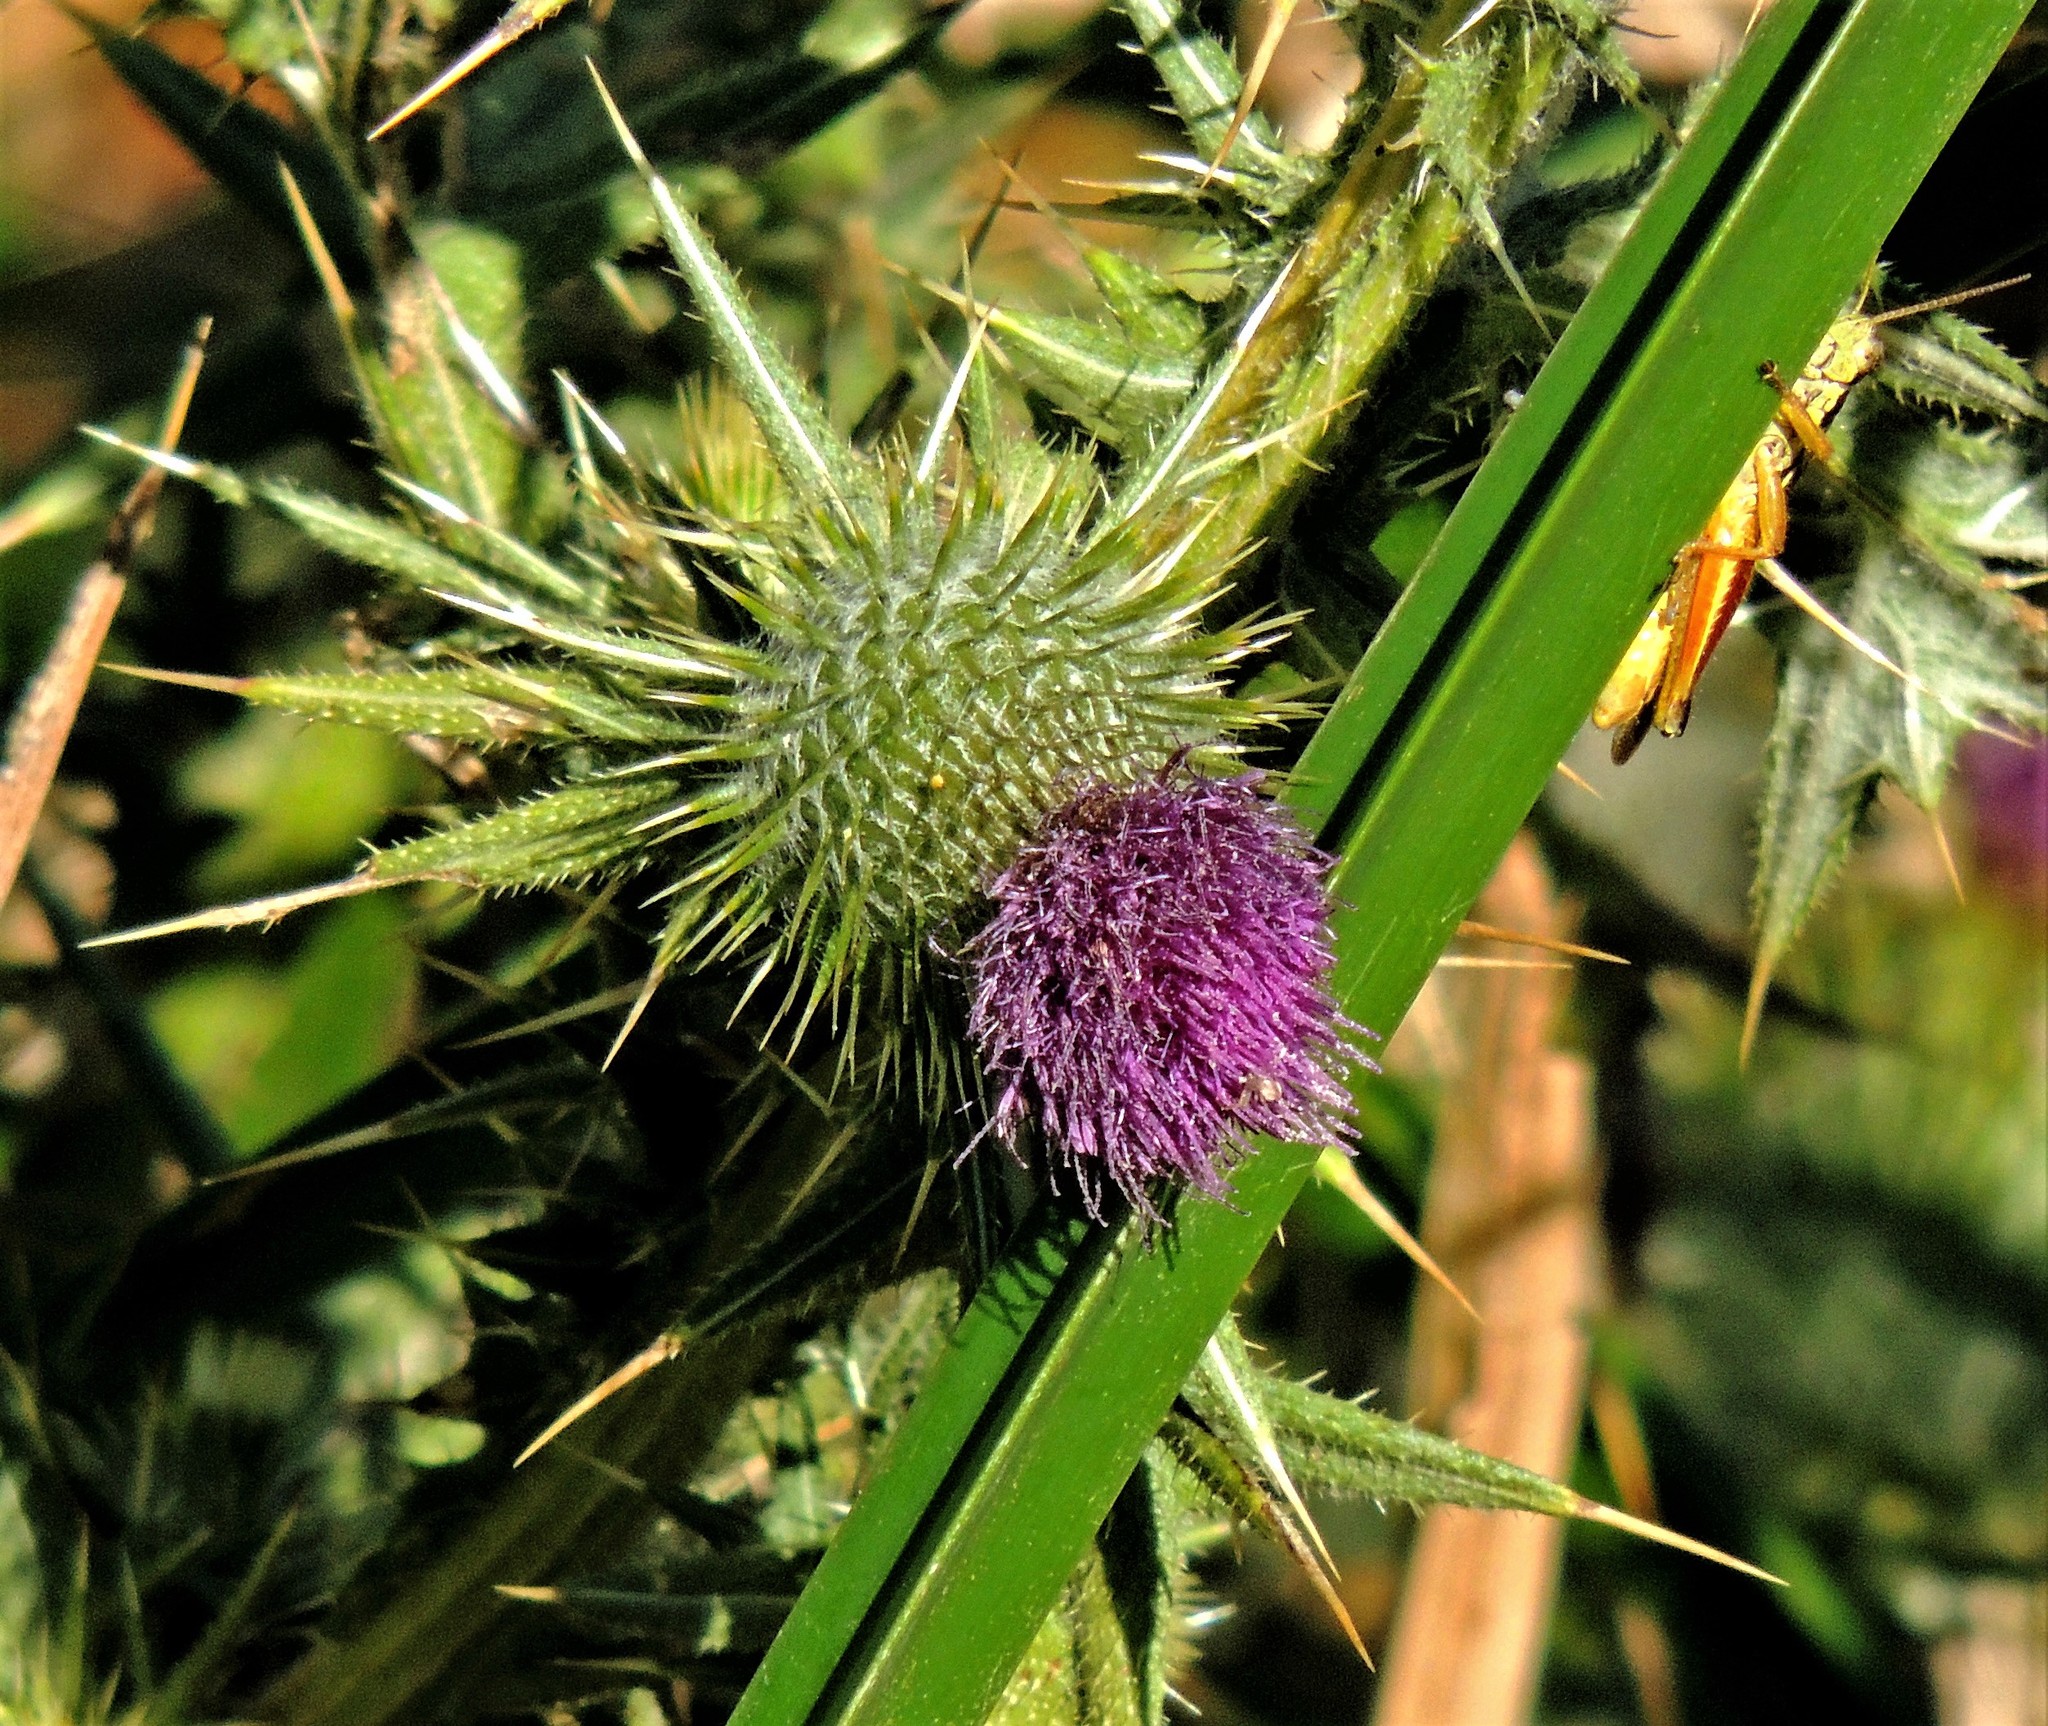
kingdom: Plantae
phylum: Tracheophyta
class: Magnoliopsida
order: Asterales
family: Asteraceae
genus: Cirsium
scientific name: Cirsium vulgare
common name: Bull thistle
